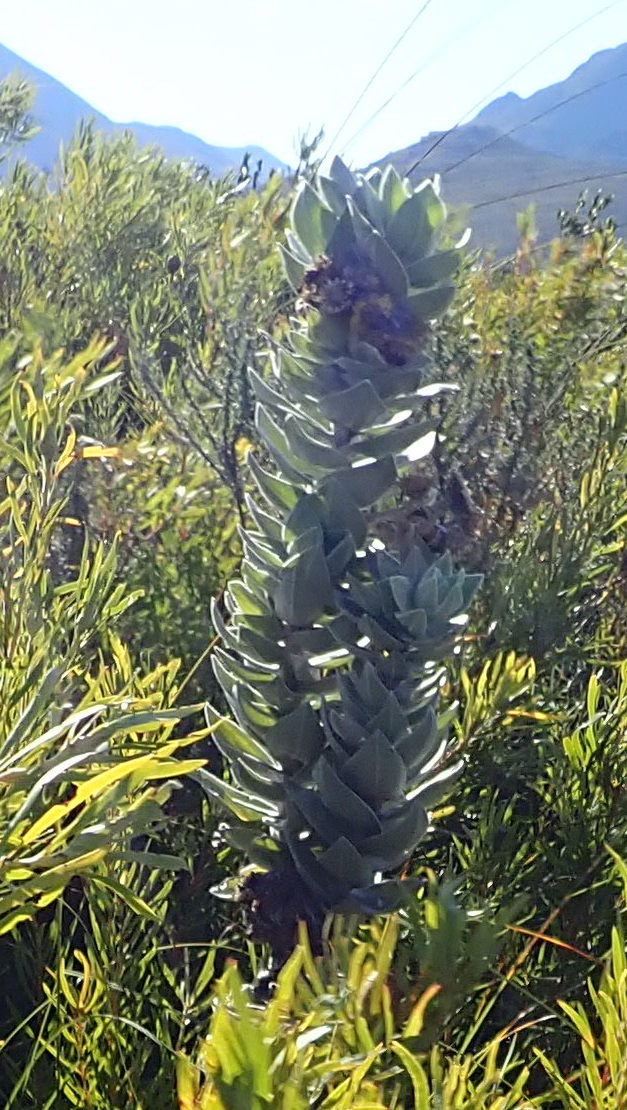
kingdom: Plantae
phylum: Tracheophyta
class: Magnoliopsida
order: Asterales
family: Asteraceae
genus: Syncarpha
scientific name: Syncarpha eximia
